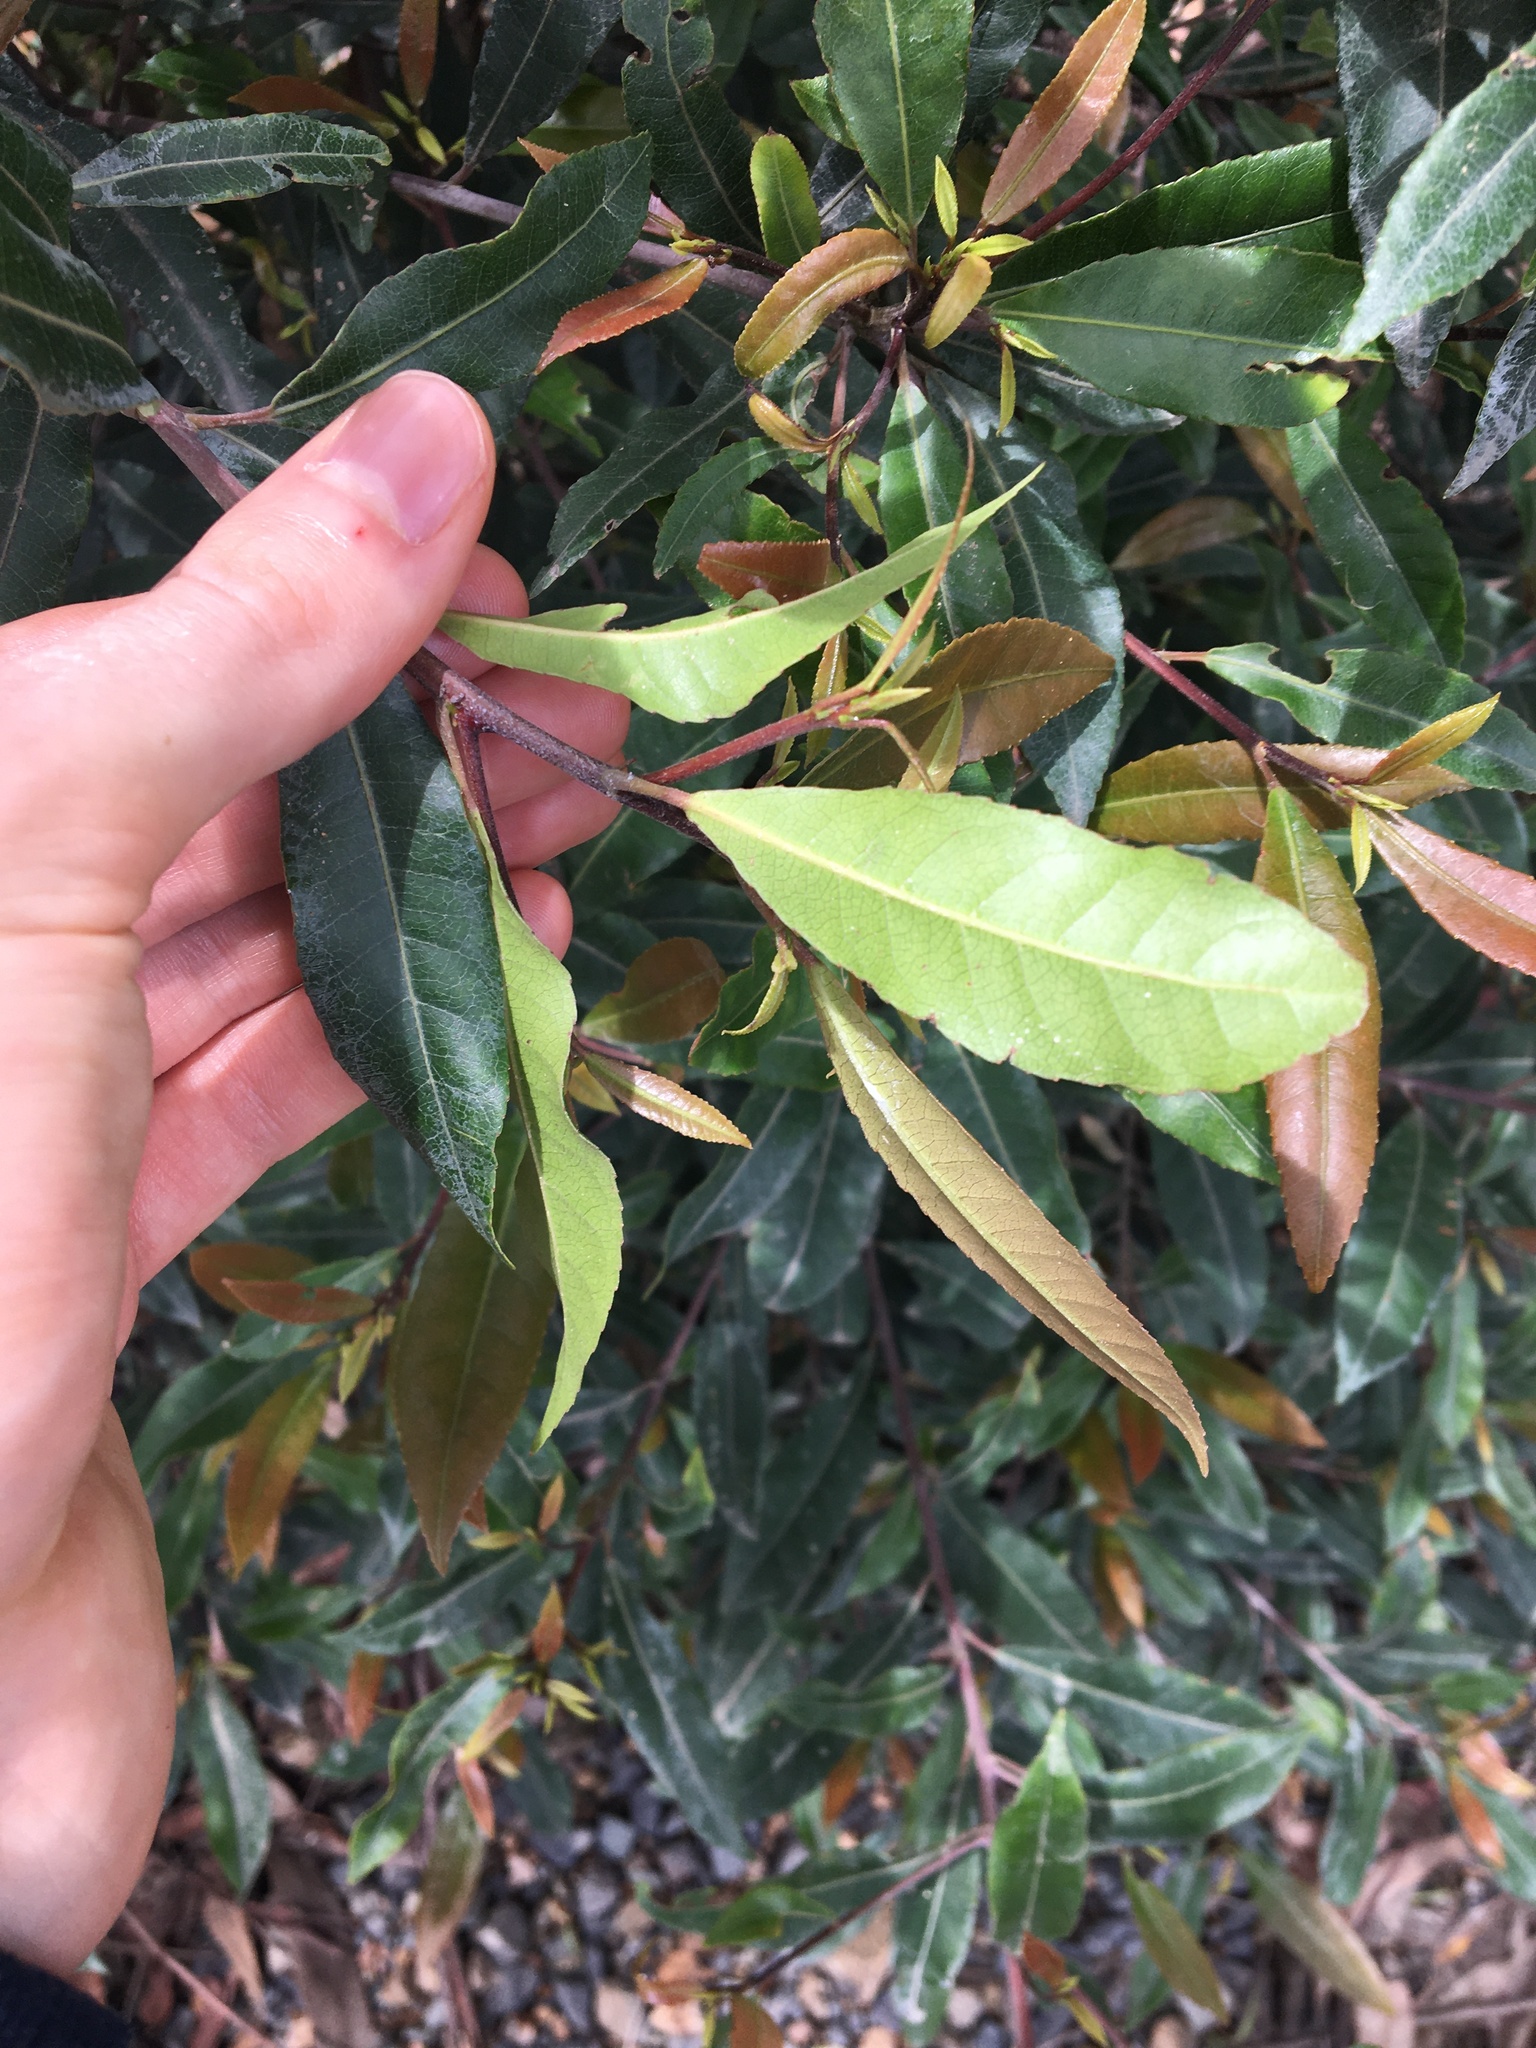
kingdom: Plantae
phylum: Tracheophyta
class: Magnoliopsida
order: Oxalidales
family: Elaeocarpaceae
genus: Elaeocarpus
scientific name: Elaeocarpus reticulatus
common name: Ash quandong
